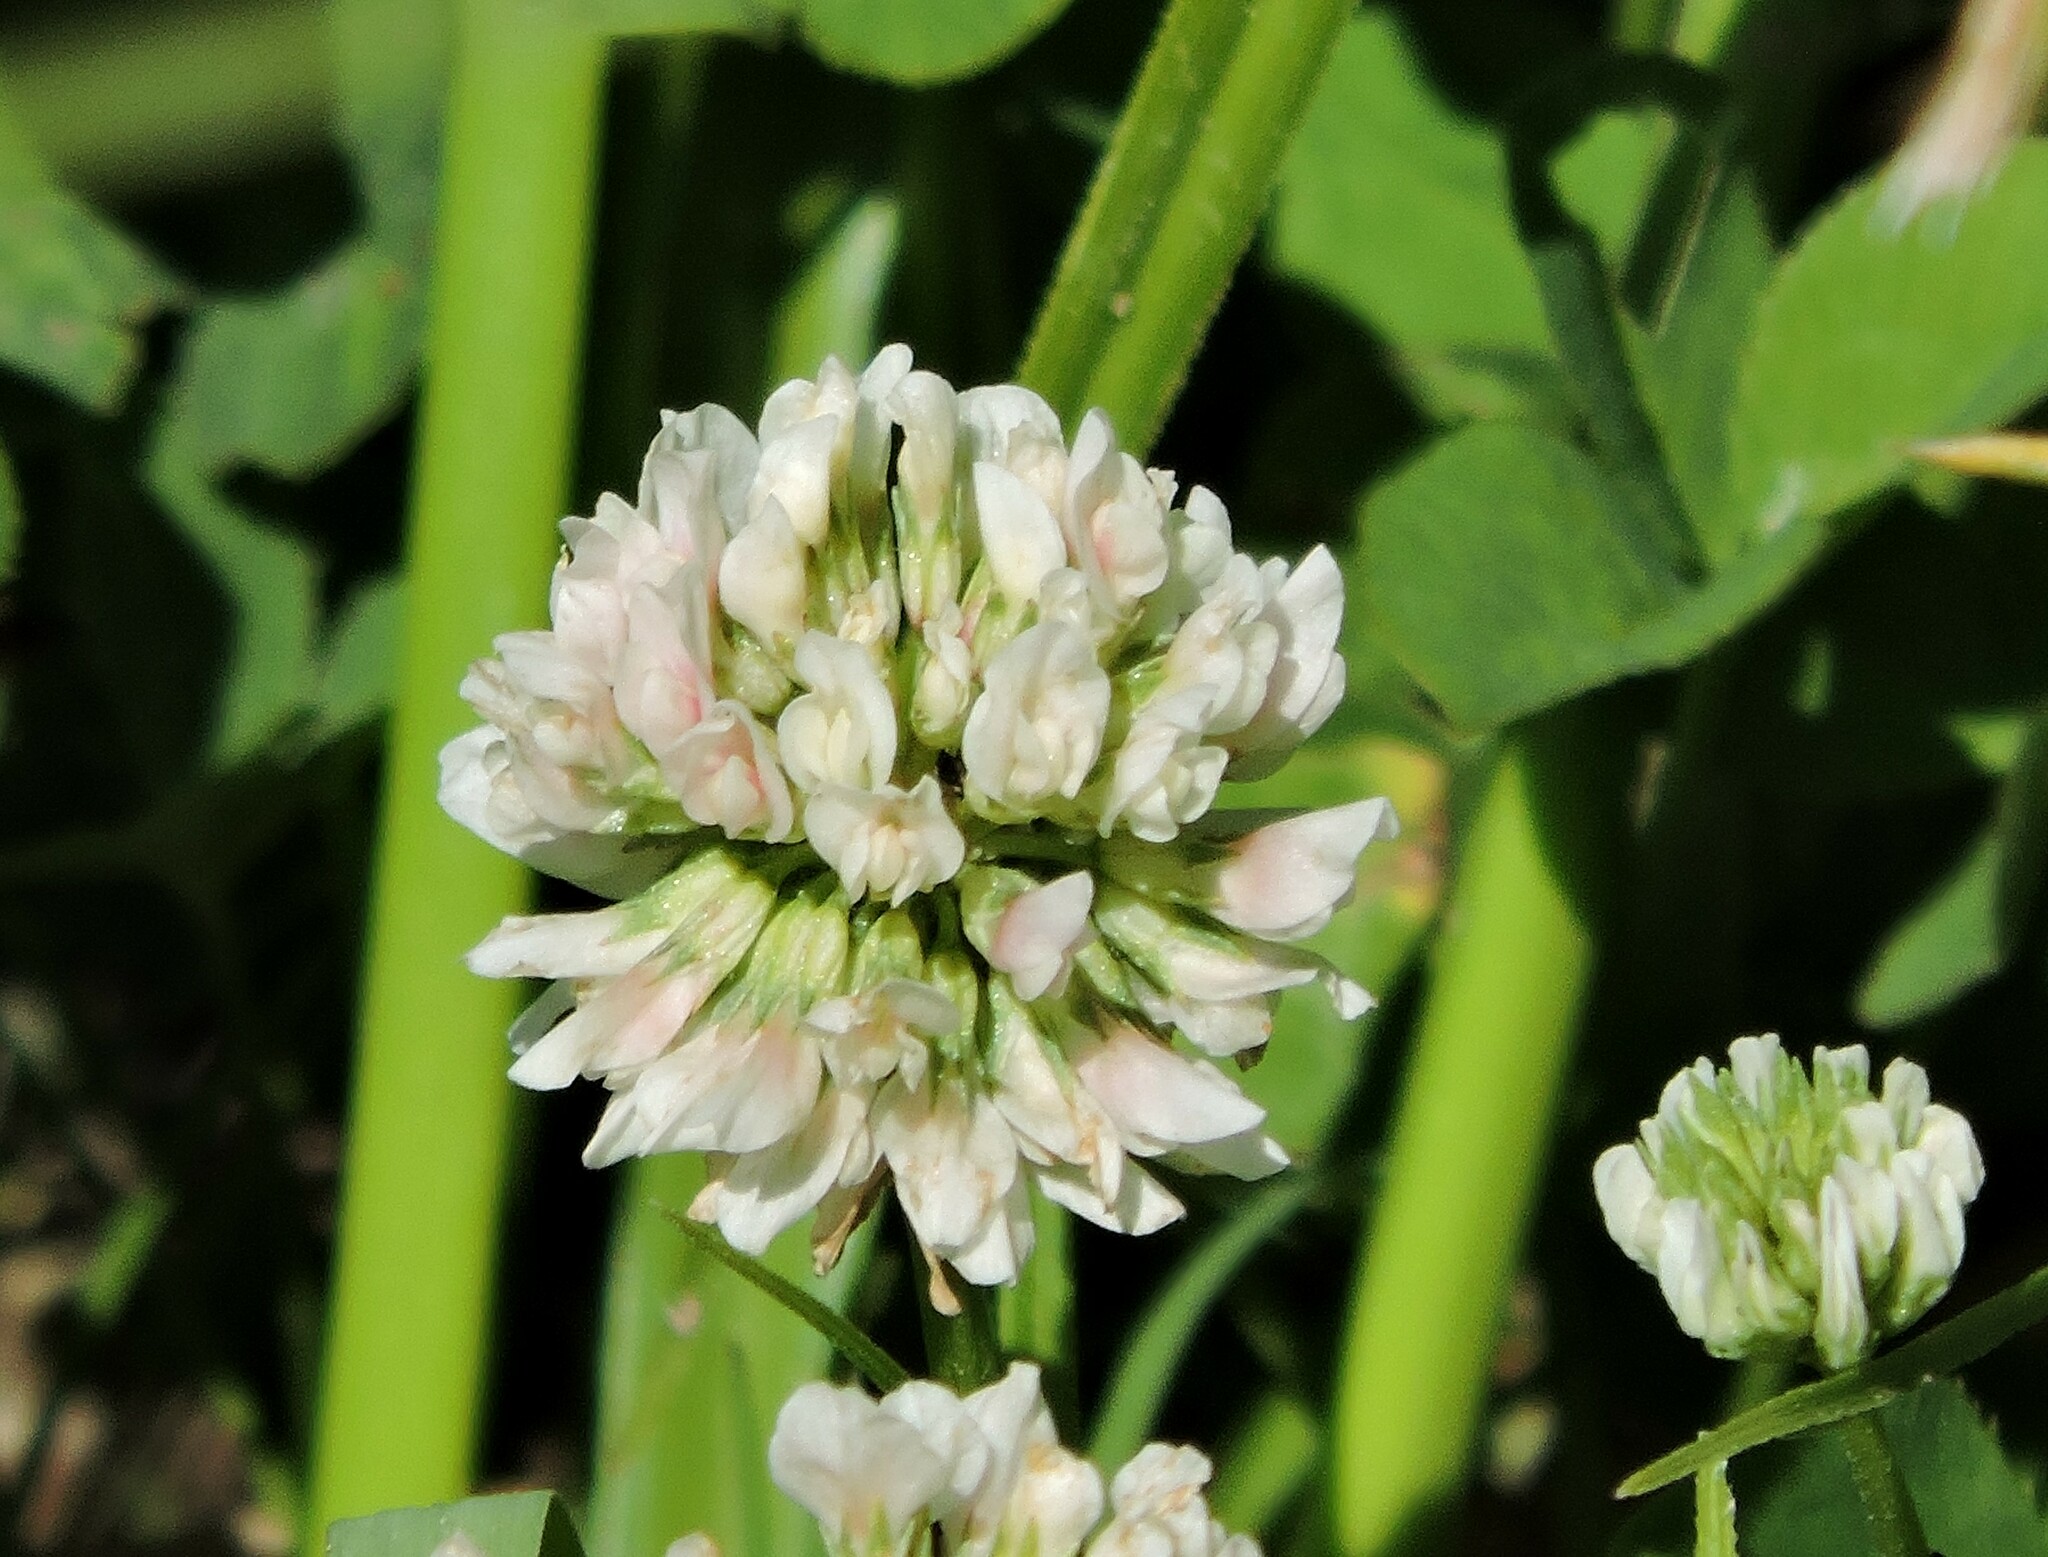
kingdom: Plantae
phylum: Tracheophyta
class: Magnoliopsida
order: Fabales
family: Fabaceae
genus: Trifolium
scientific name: Trifolium repens
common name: White clover
